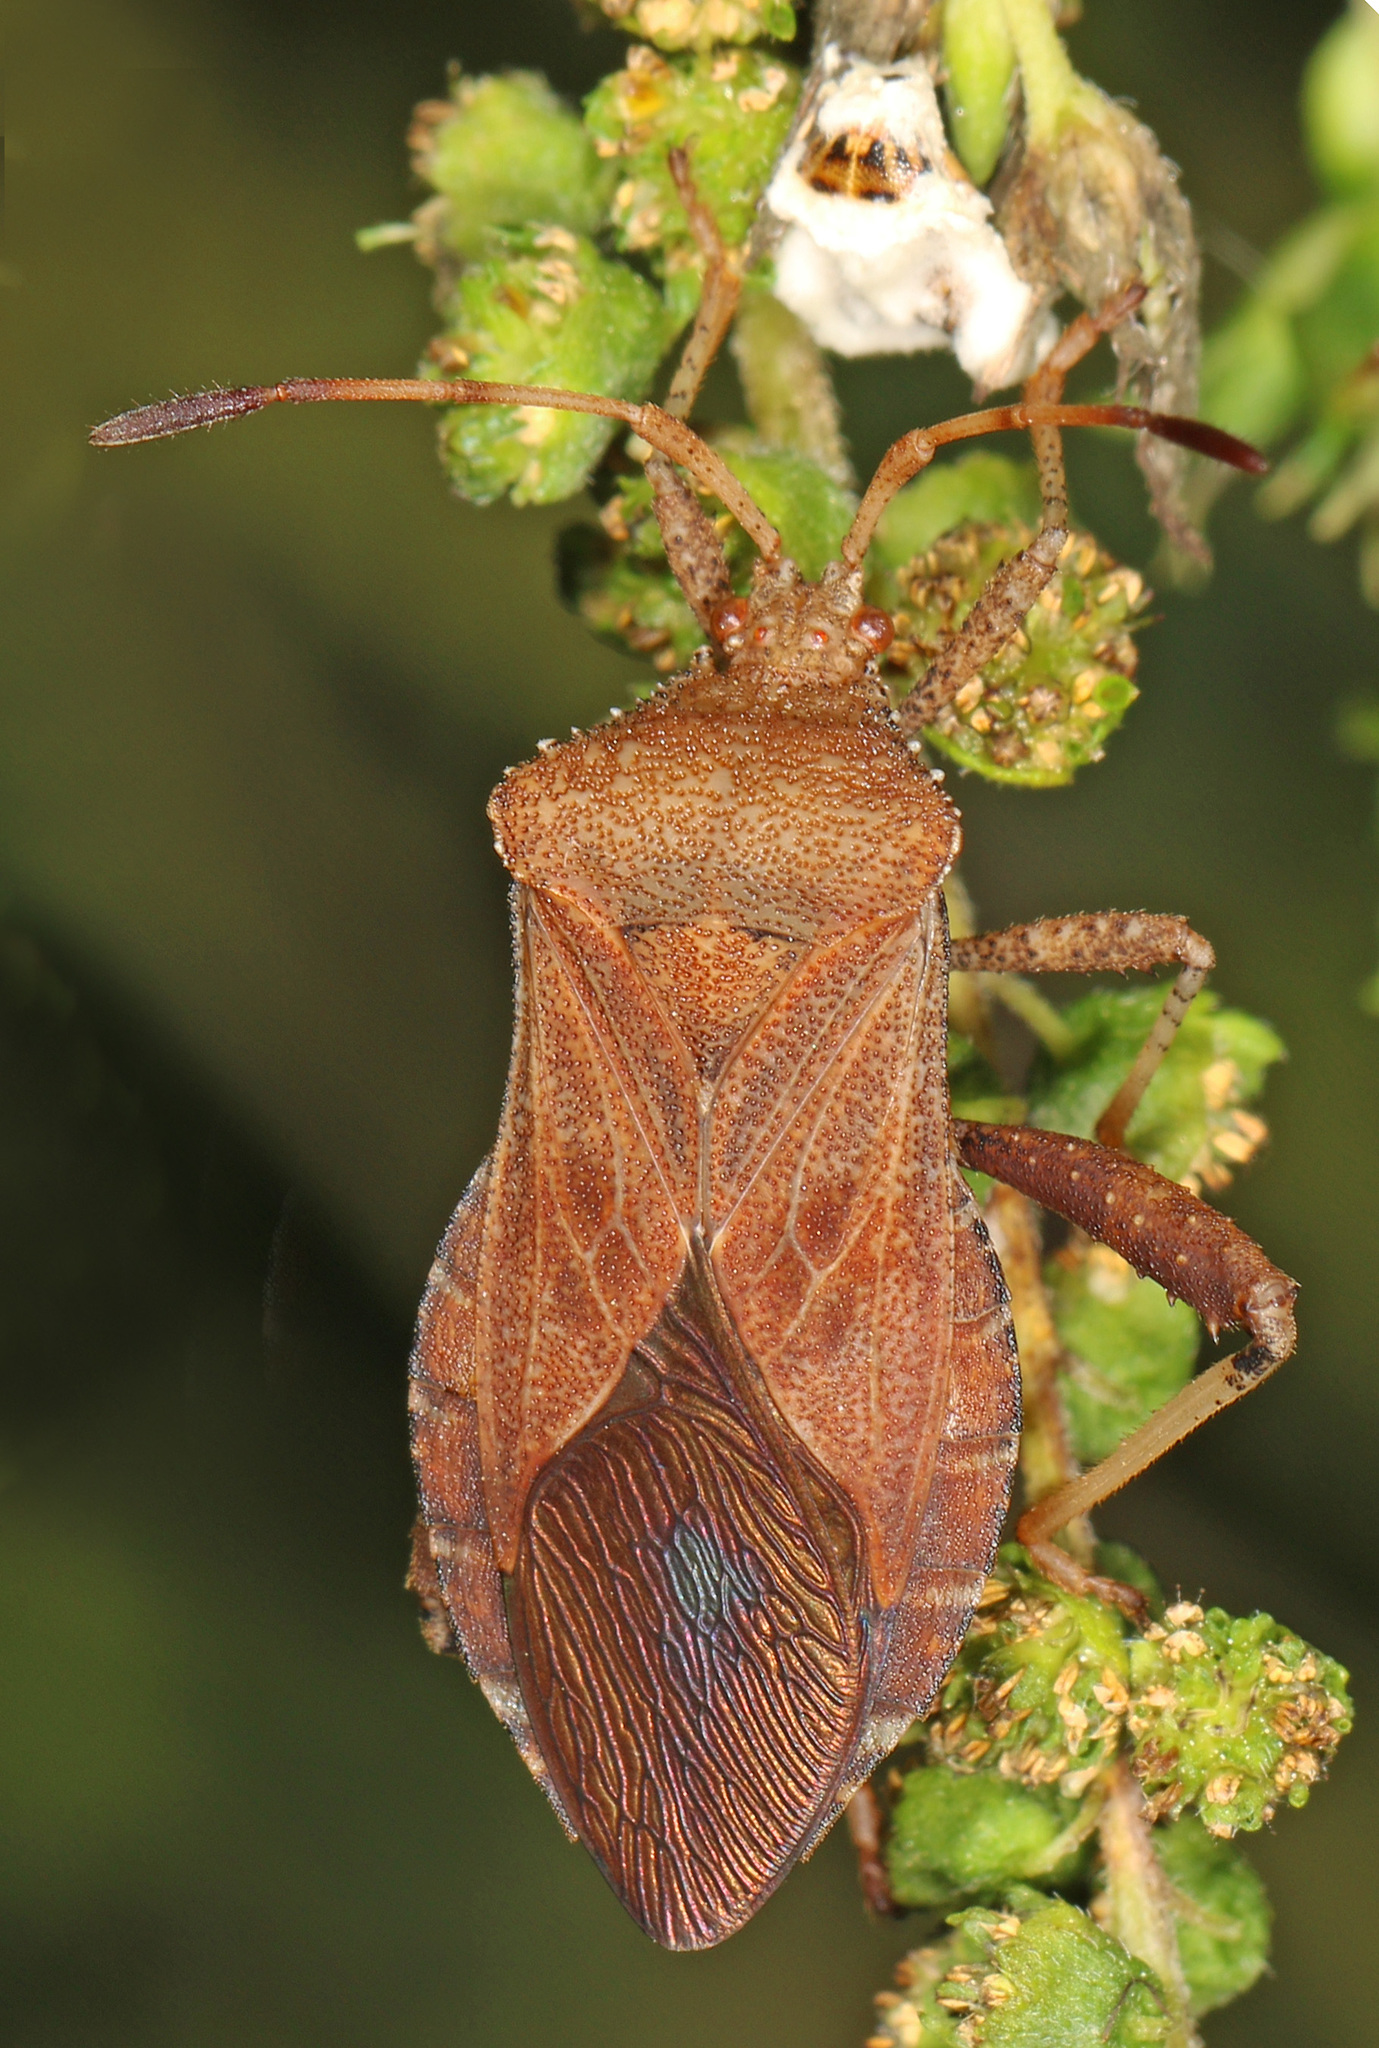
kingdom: Animalia
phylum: Arthropoda
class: Insecta
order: Hemiptera
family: Coreidae
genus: Euthochtha
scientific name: Euthochtha galeator
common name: Helmeted squash bug
